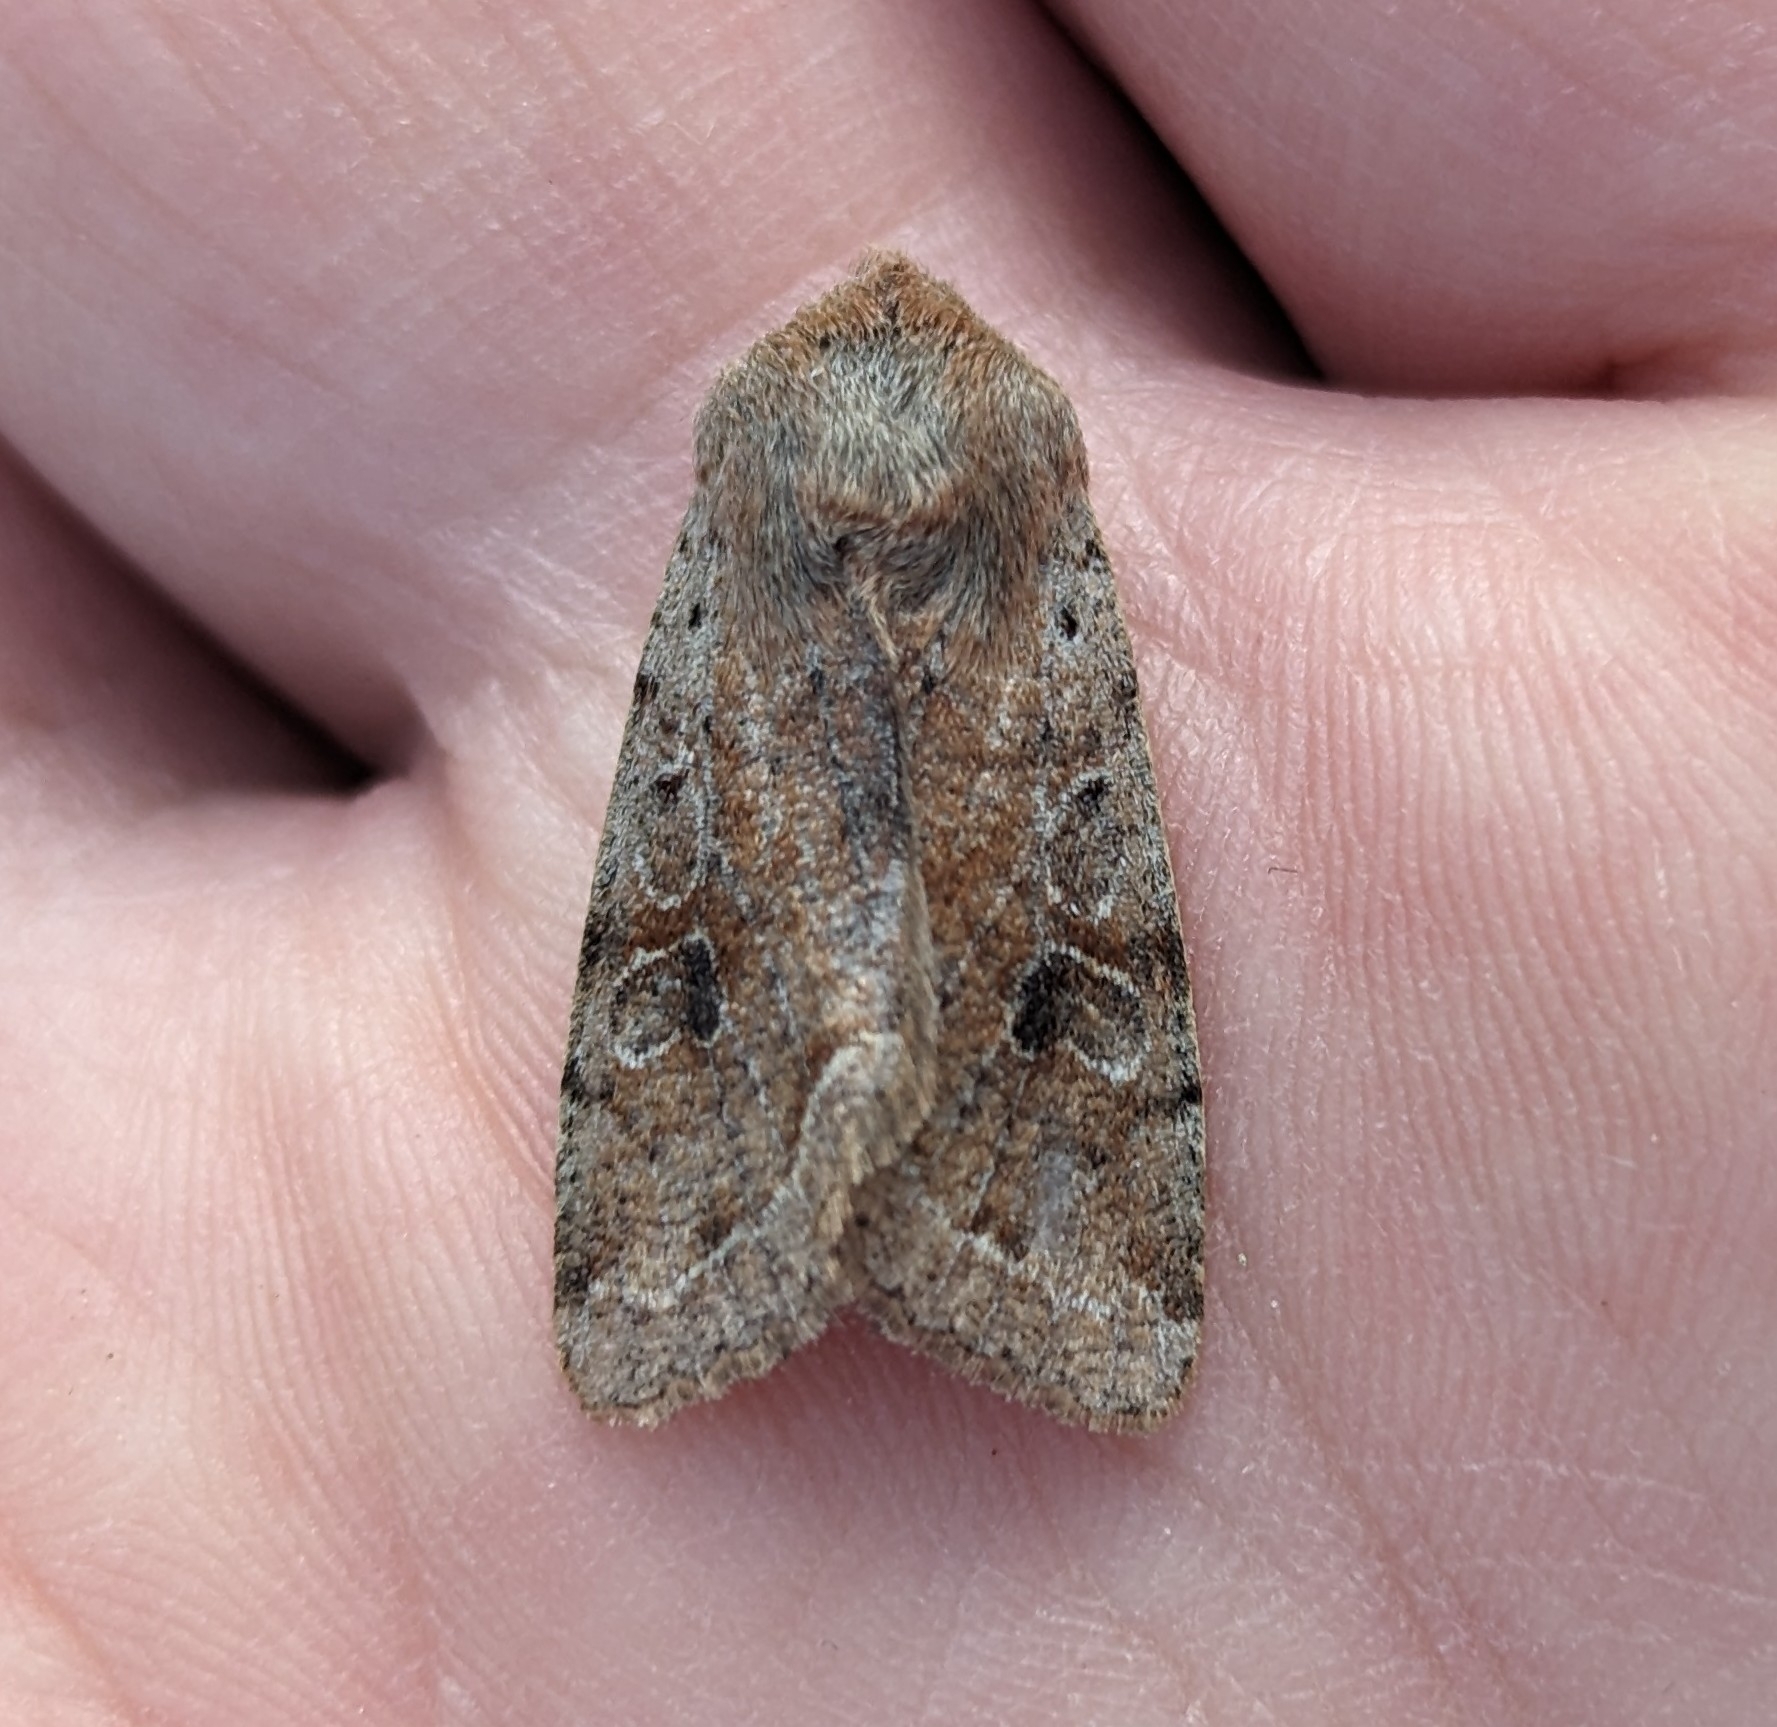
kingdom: Animalia
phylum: Arthropoda
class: Insecta
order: Lepidoptera
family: Noctuidae
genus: Orthosia
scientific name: Orthosia hibisci
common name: Green fruitworm
